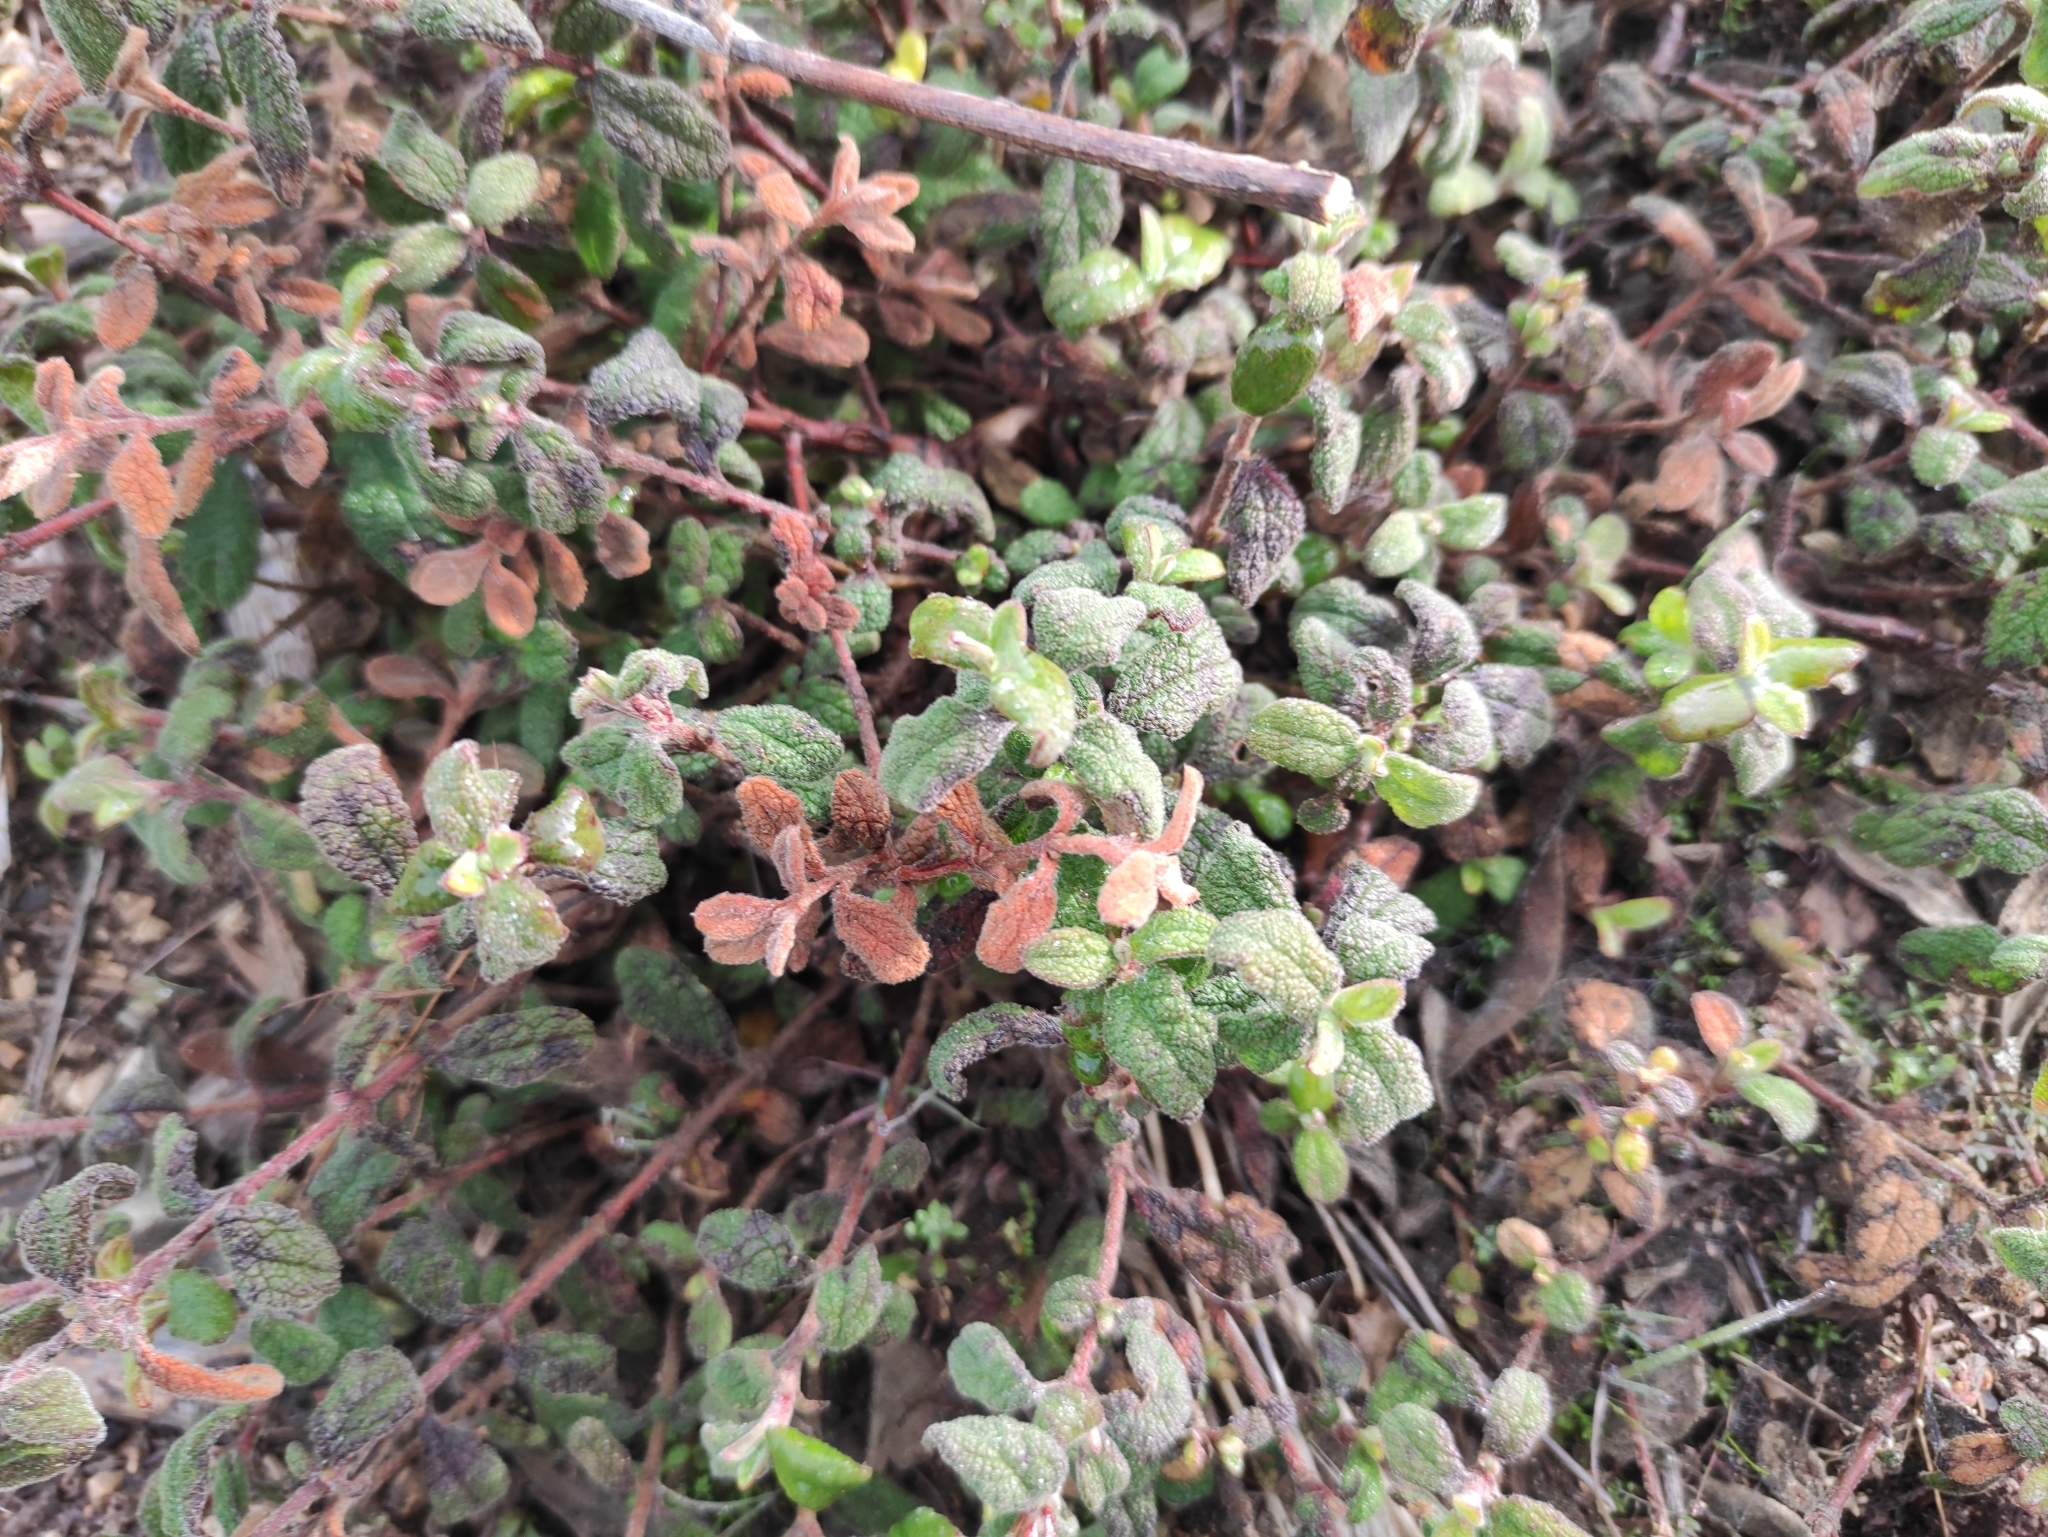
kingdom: Plantae
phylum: Tracheophyta
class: Magnoliopsida
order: Malvales
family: Cistaceae
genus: Cistus
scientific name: Cistus salviifolius
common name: Salvia cistus
